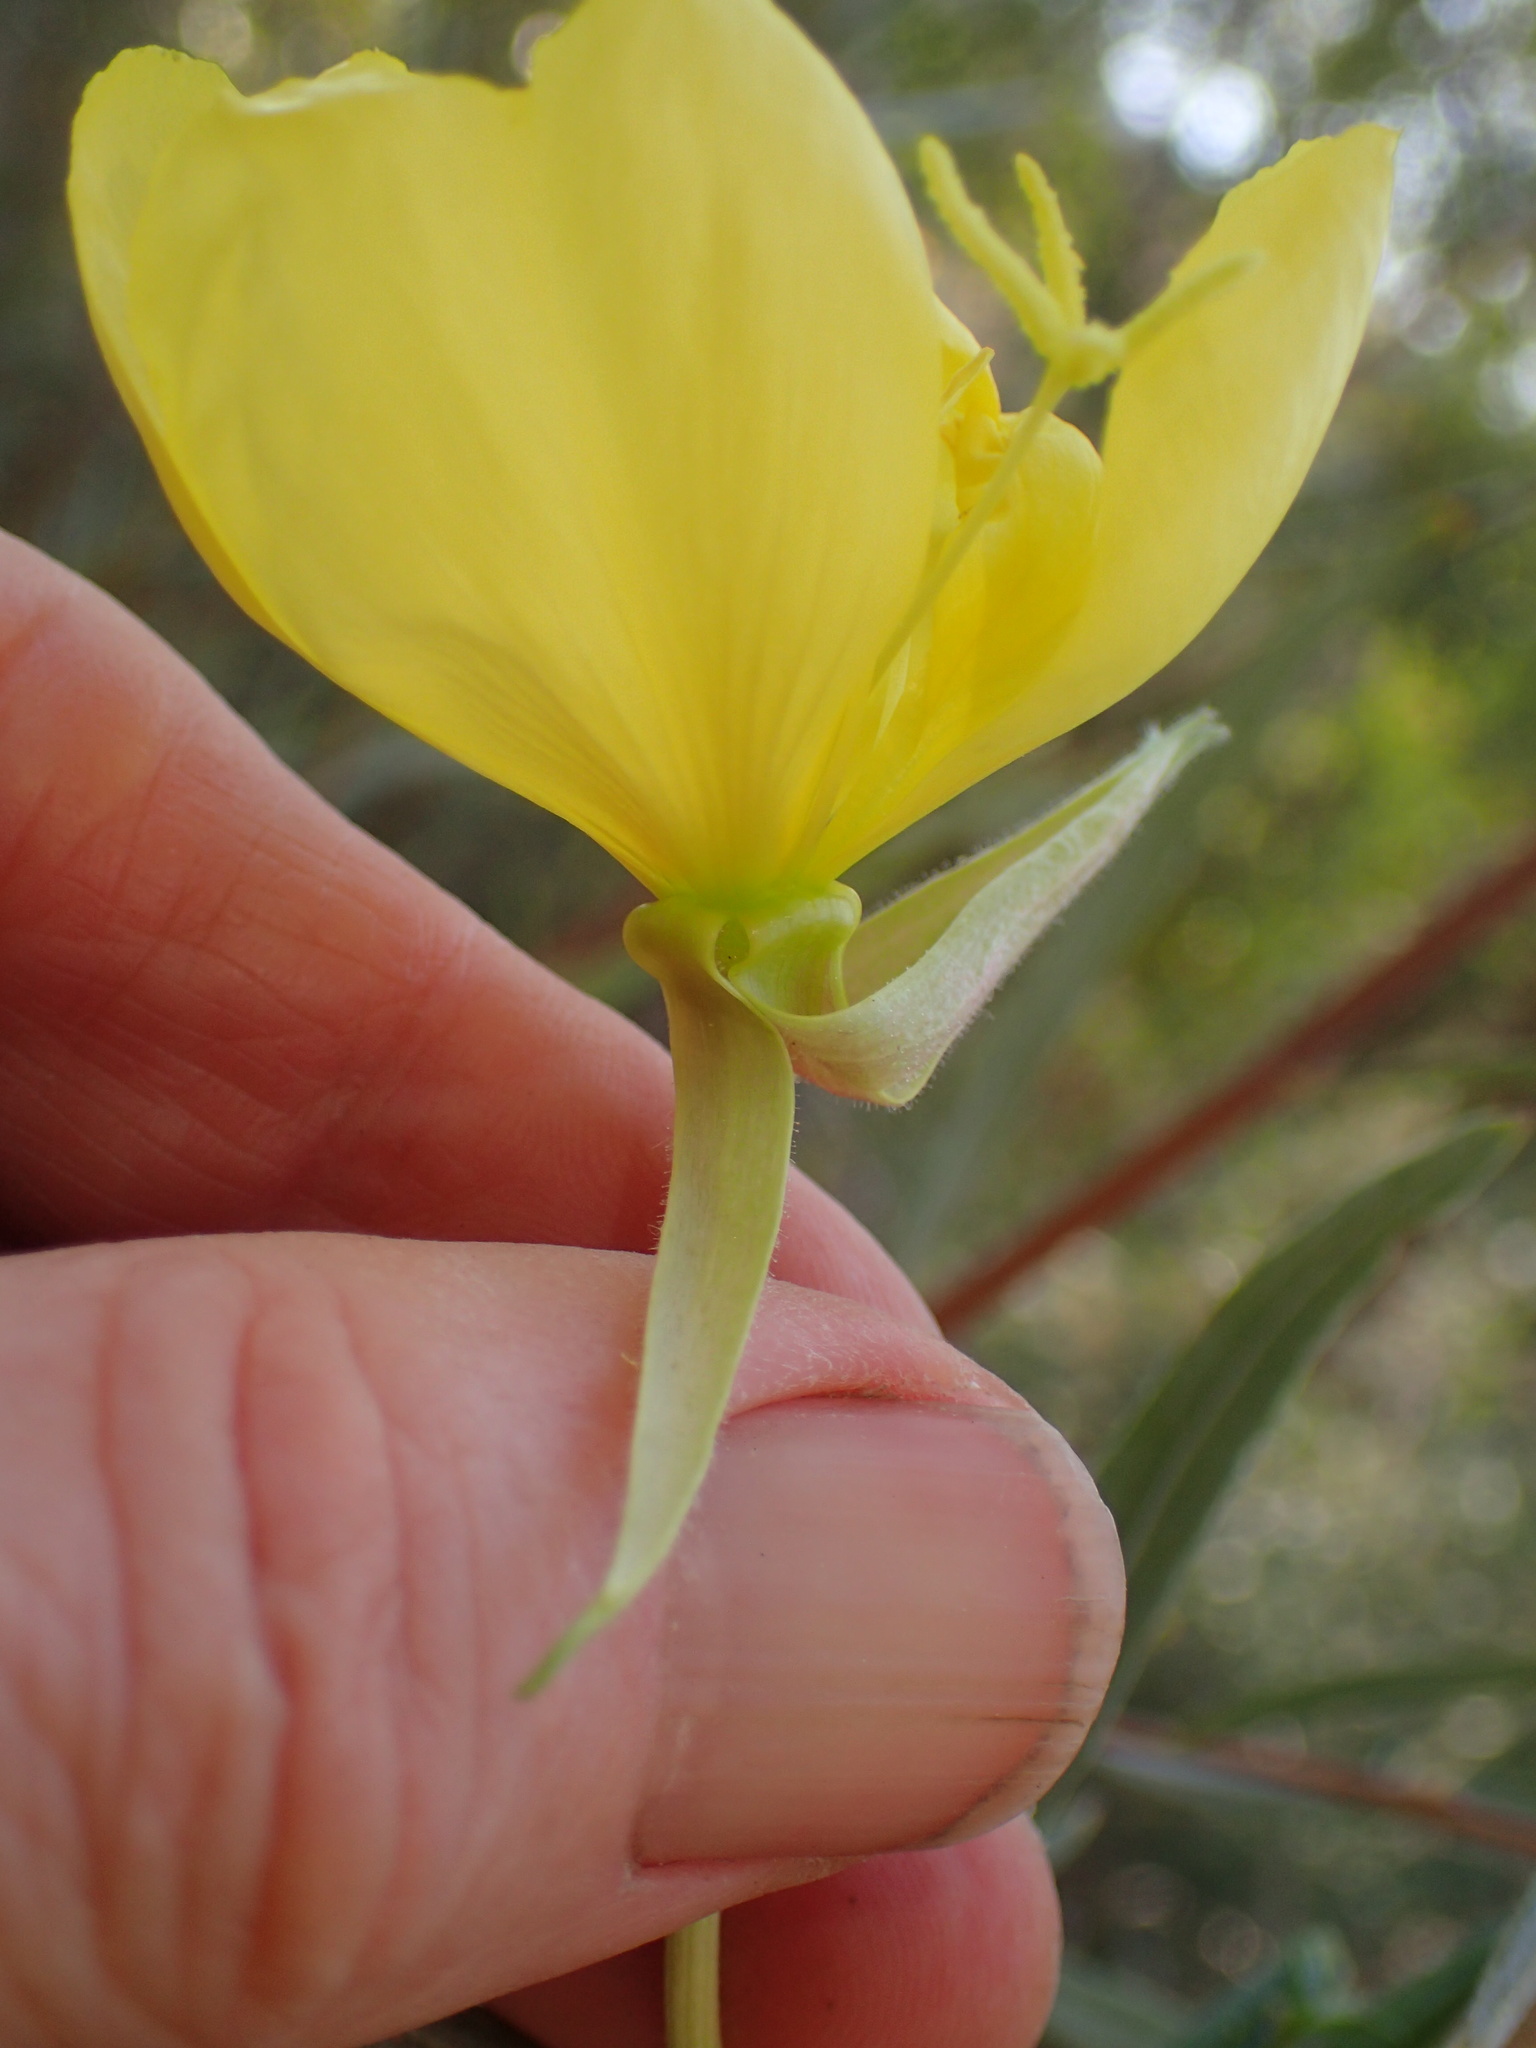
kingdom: Plantae
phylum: Tracheophyta
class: Magnoliopsida
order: Myrtales
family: Onagraceae
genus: Oenothera
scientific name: Oenothera elata
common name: Hooker's evening-primrose
